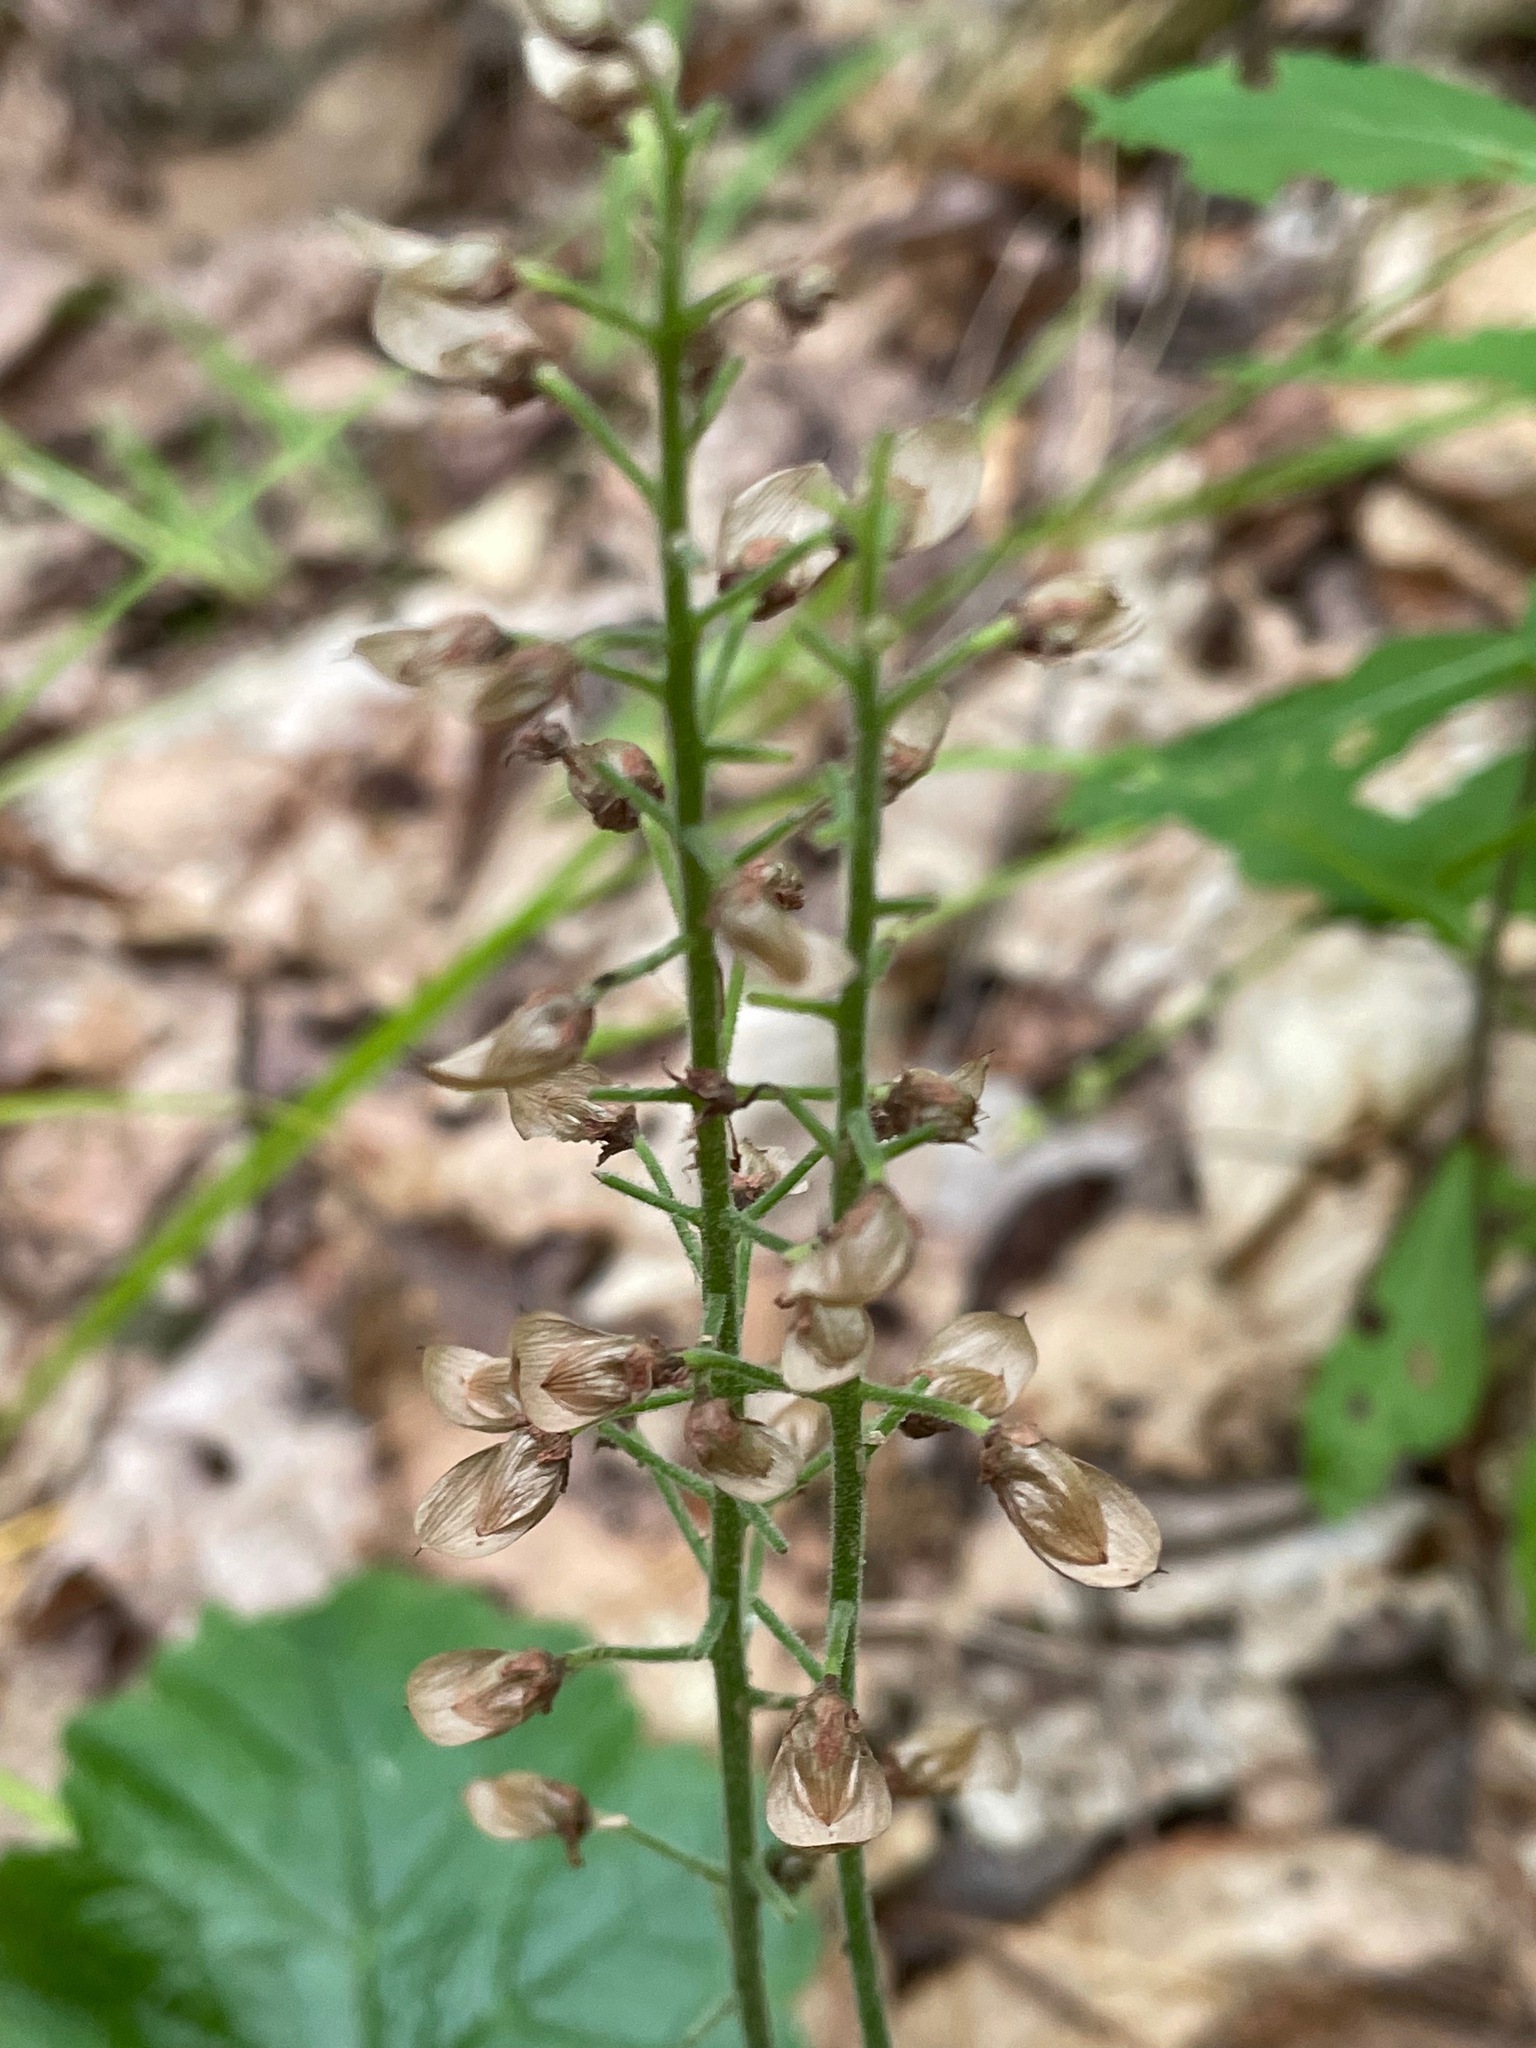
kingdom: Plantae
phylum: Tracheophyta
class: Magnoliopsida
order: Saxifragales
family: Saxifragaceae
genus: Tiarella
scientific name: Tiarella stolonifera
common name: Stoloniferous foamflower
